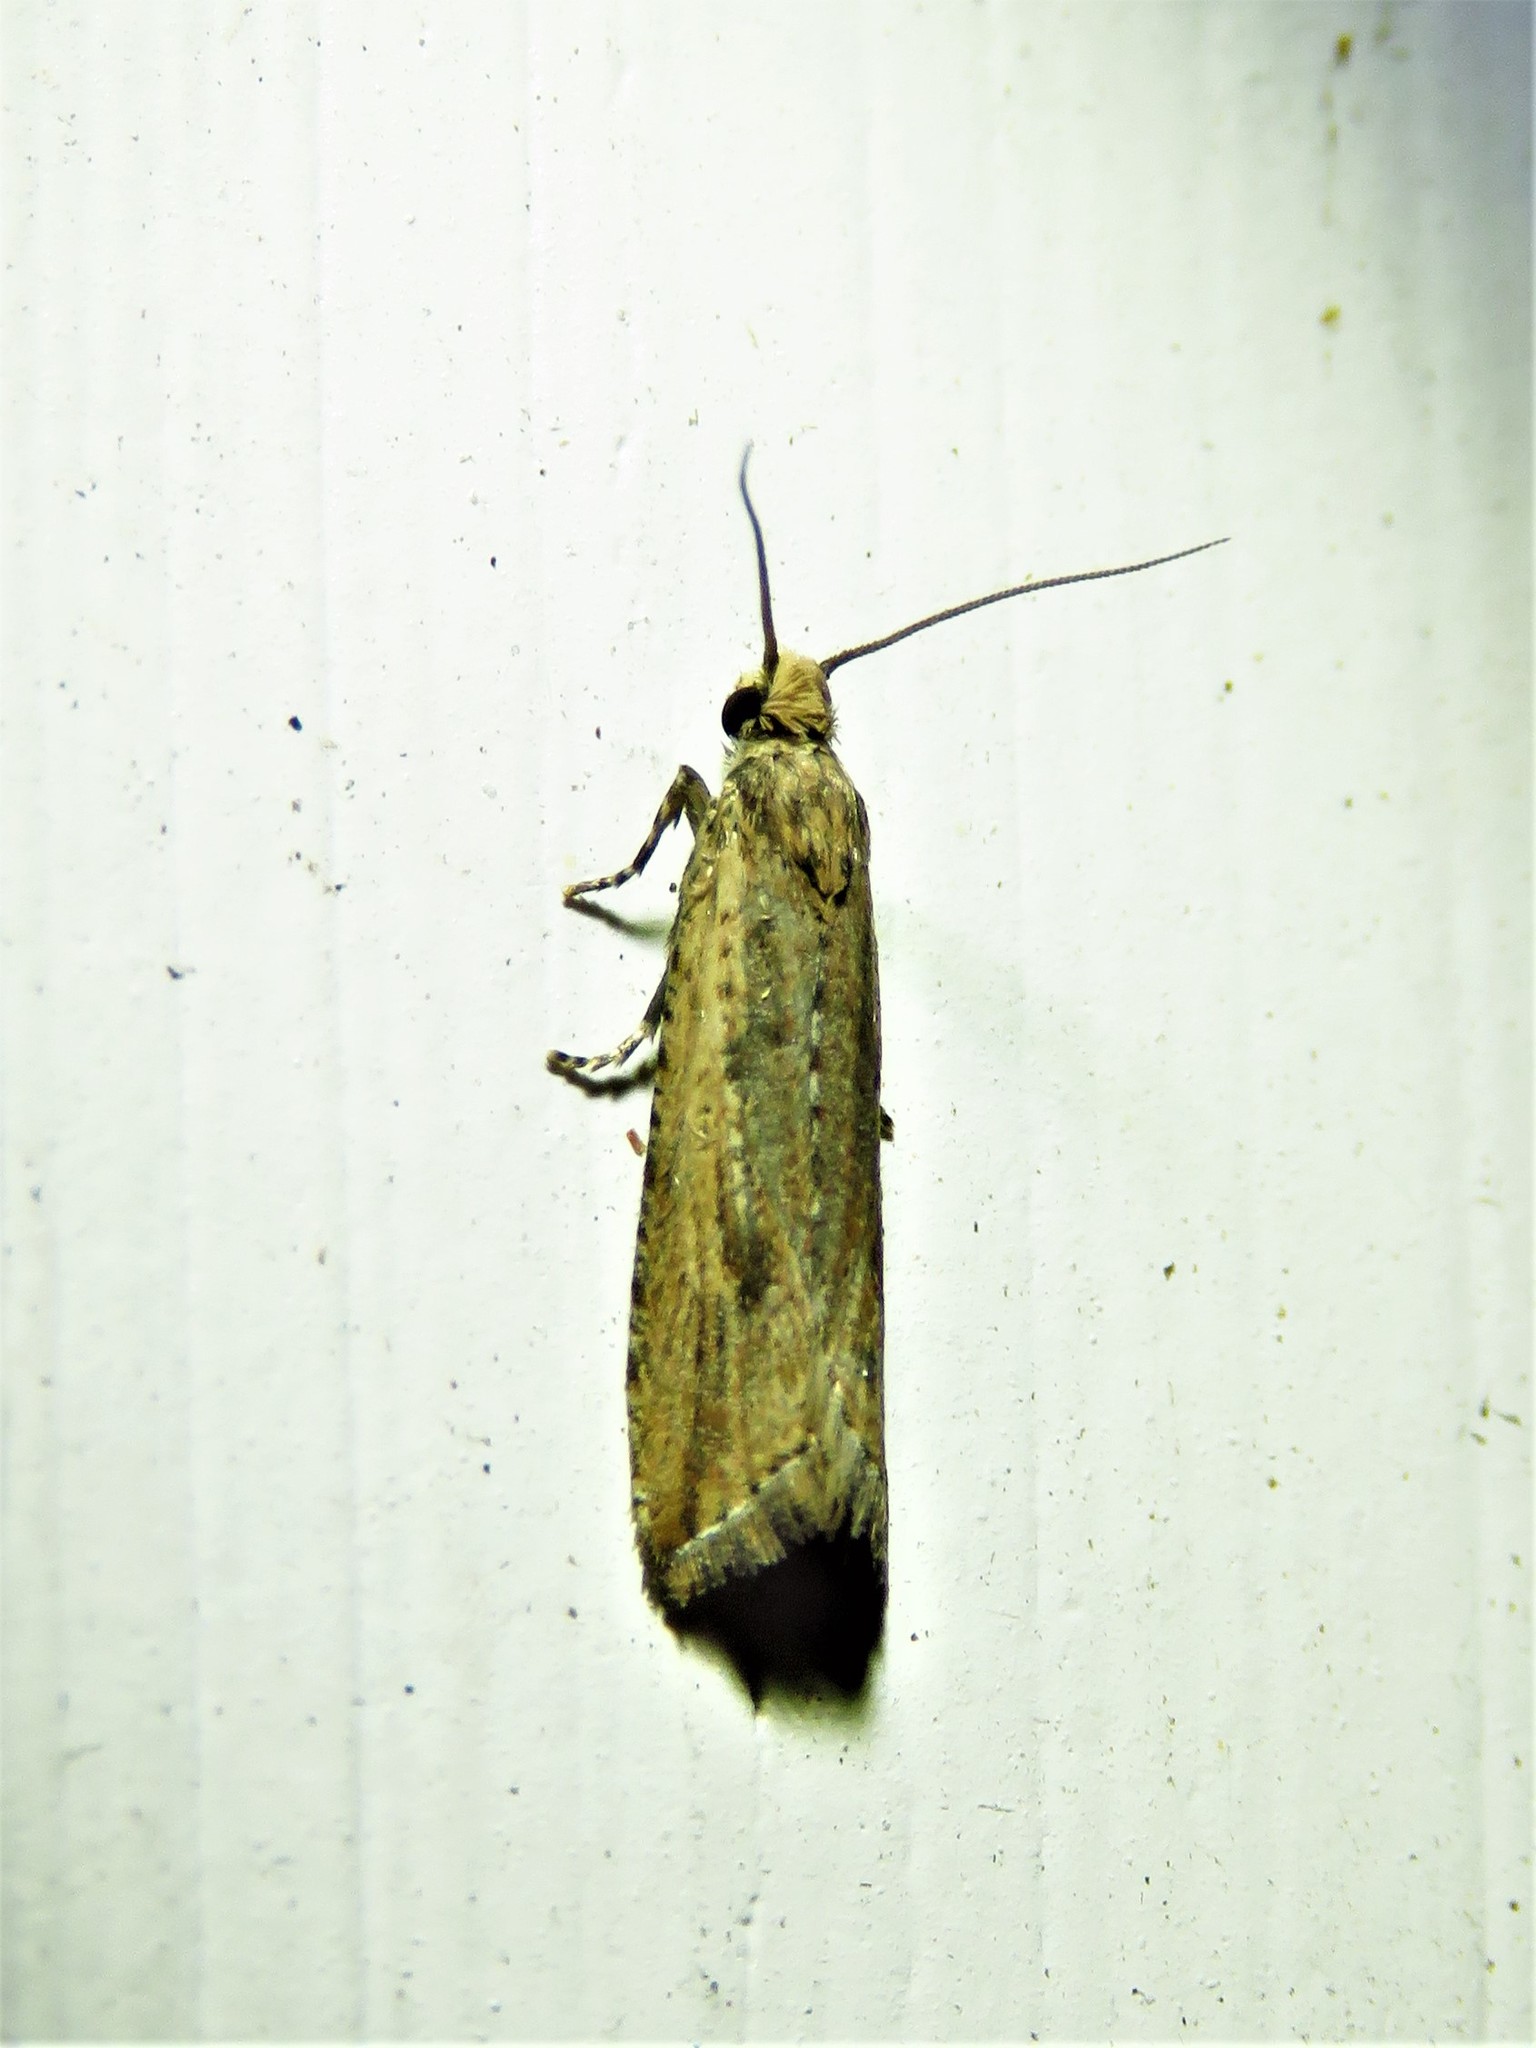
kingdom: Animalia
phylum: Arthropoda
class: Insecta
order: Lepidoptera
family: Tortricidae
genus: Bactra
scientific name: Bactra verutana
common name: Javelin moth
